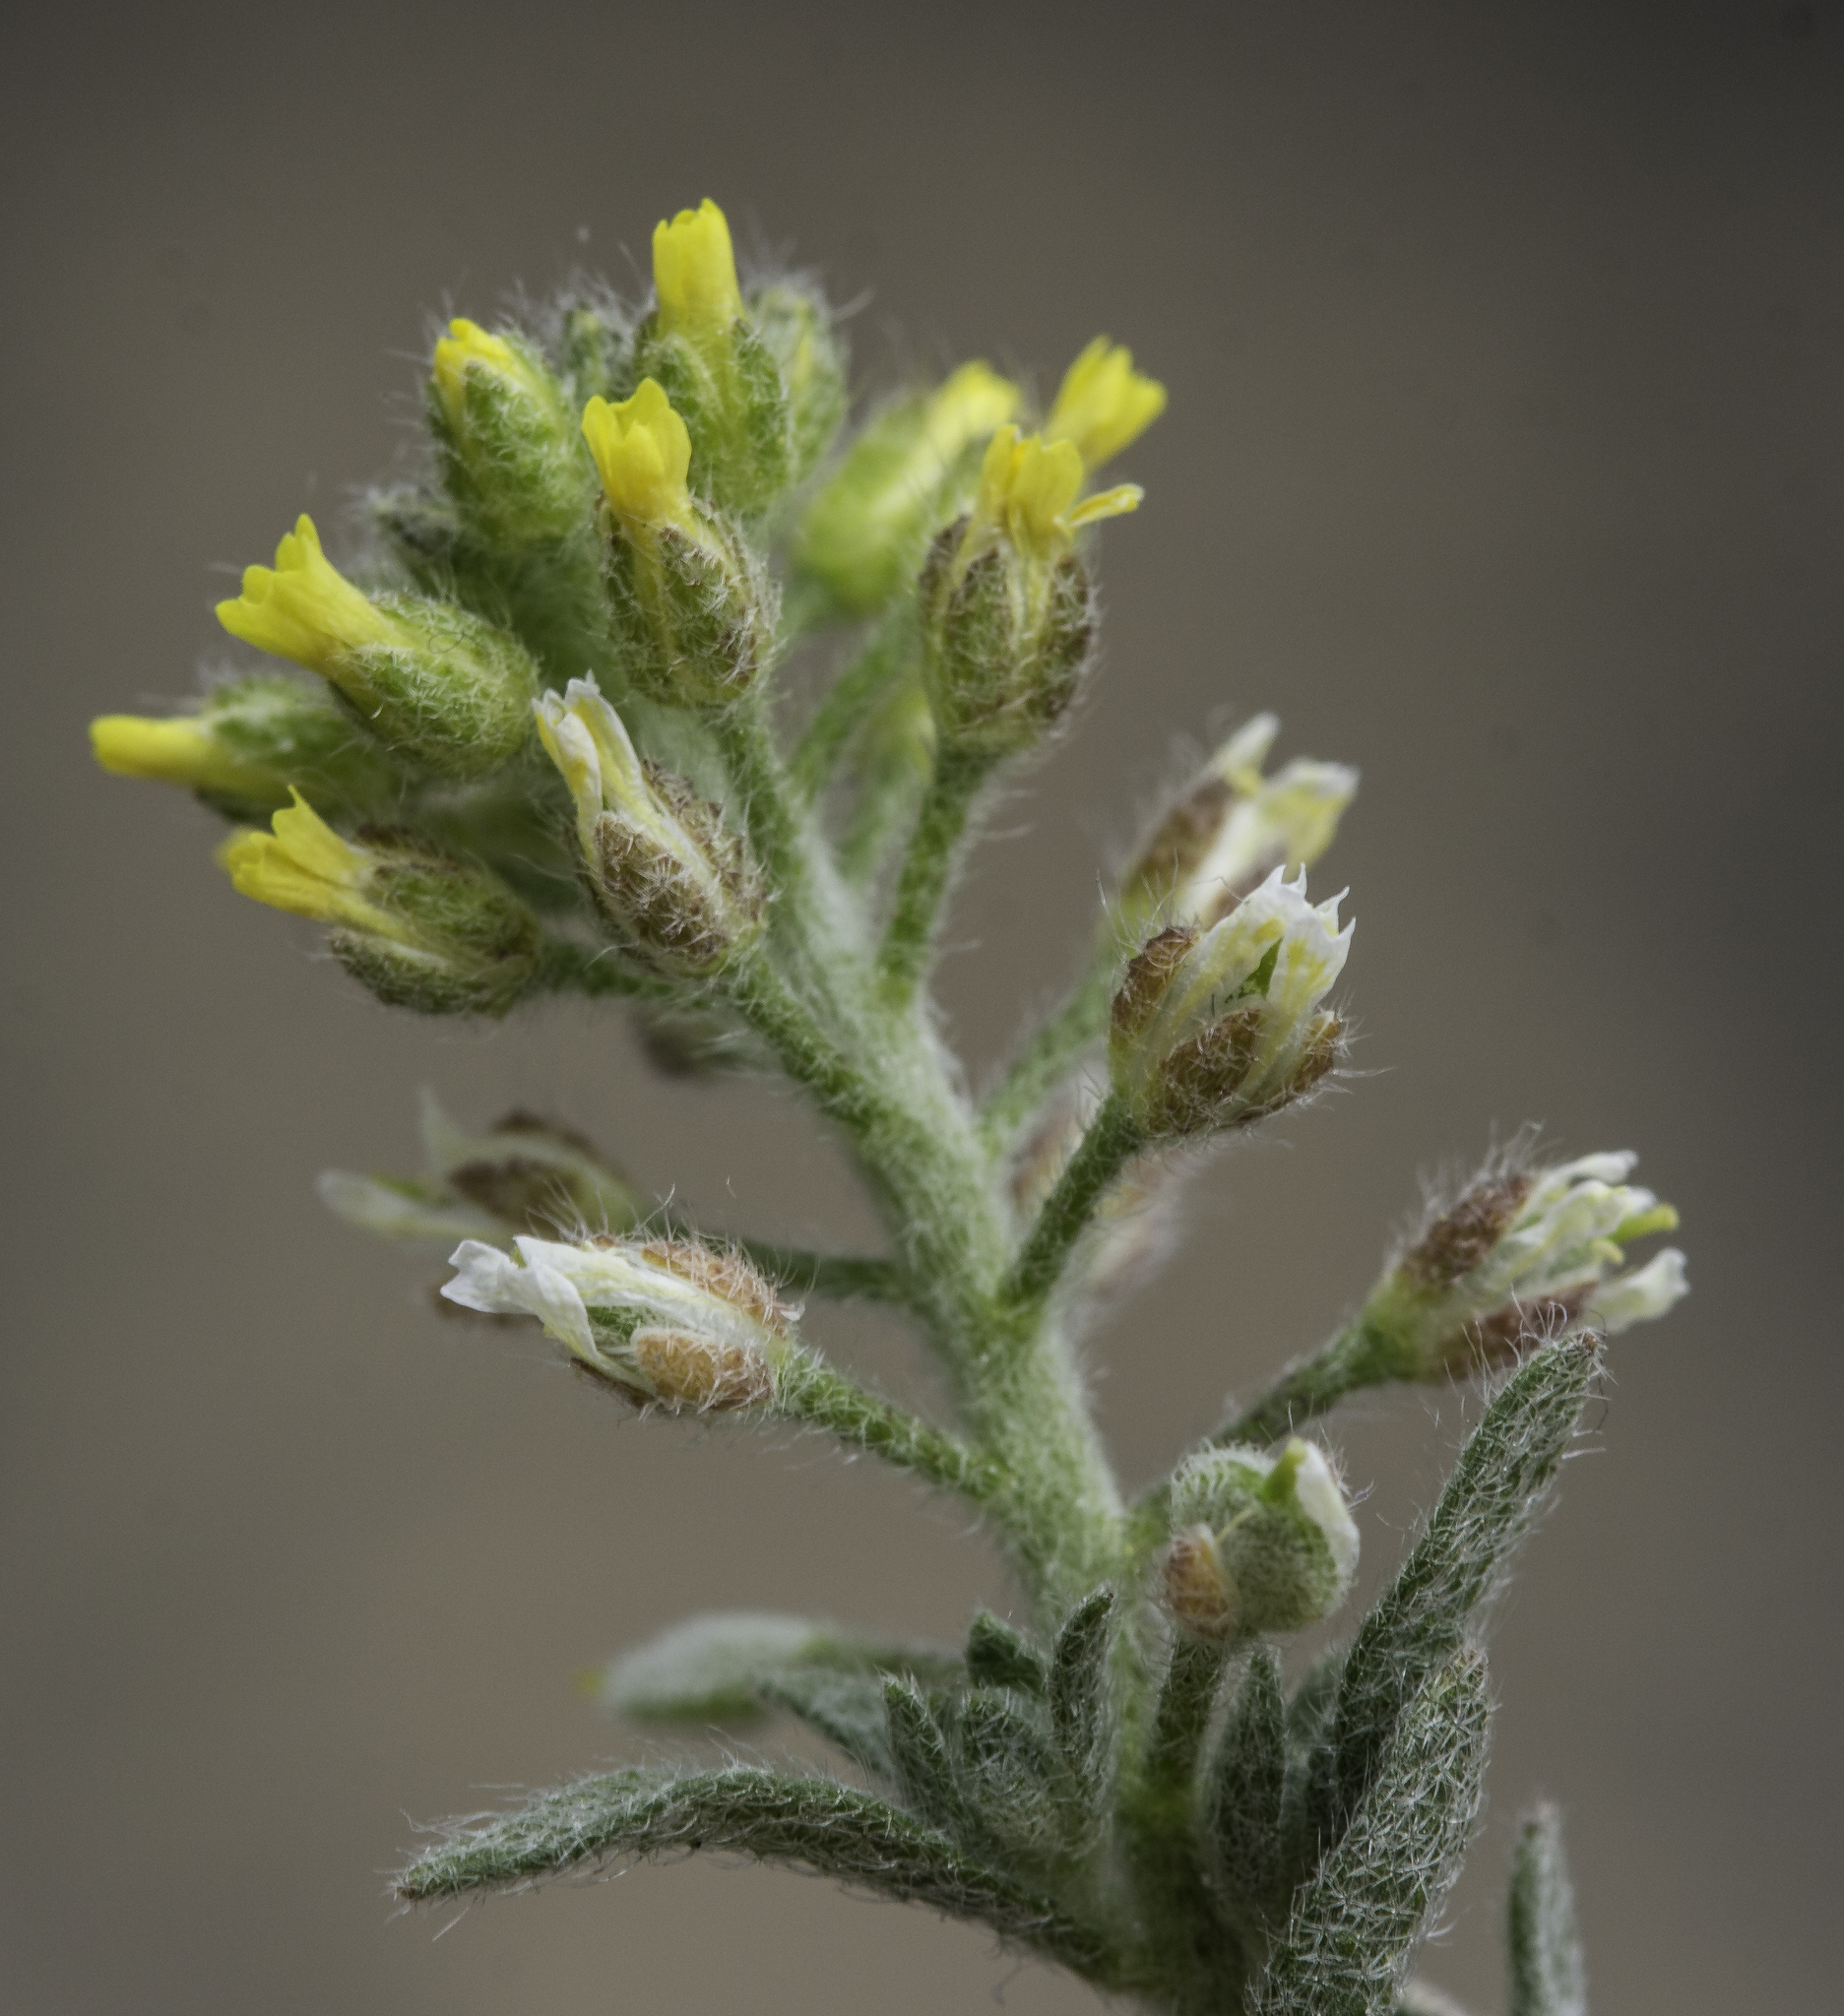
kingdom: Plantae
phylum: Tracheophyta
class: Magnoliopsida
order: Brassicales
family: Brassicaceae
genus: Alyssum
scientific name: Alyssum simplex
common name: Alyssum
